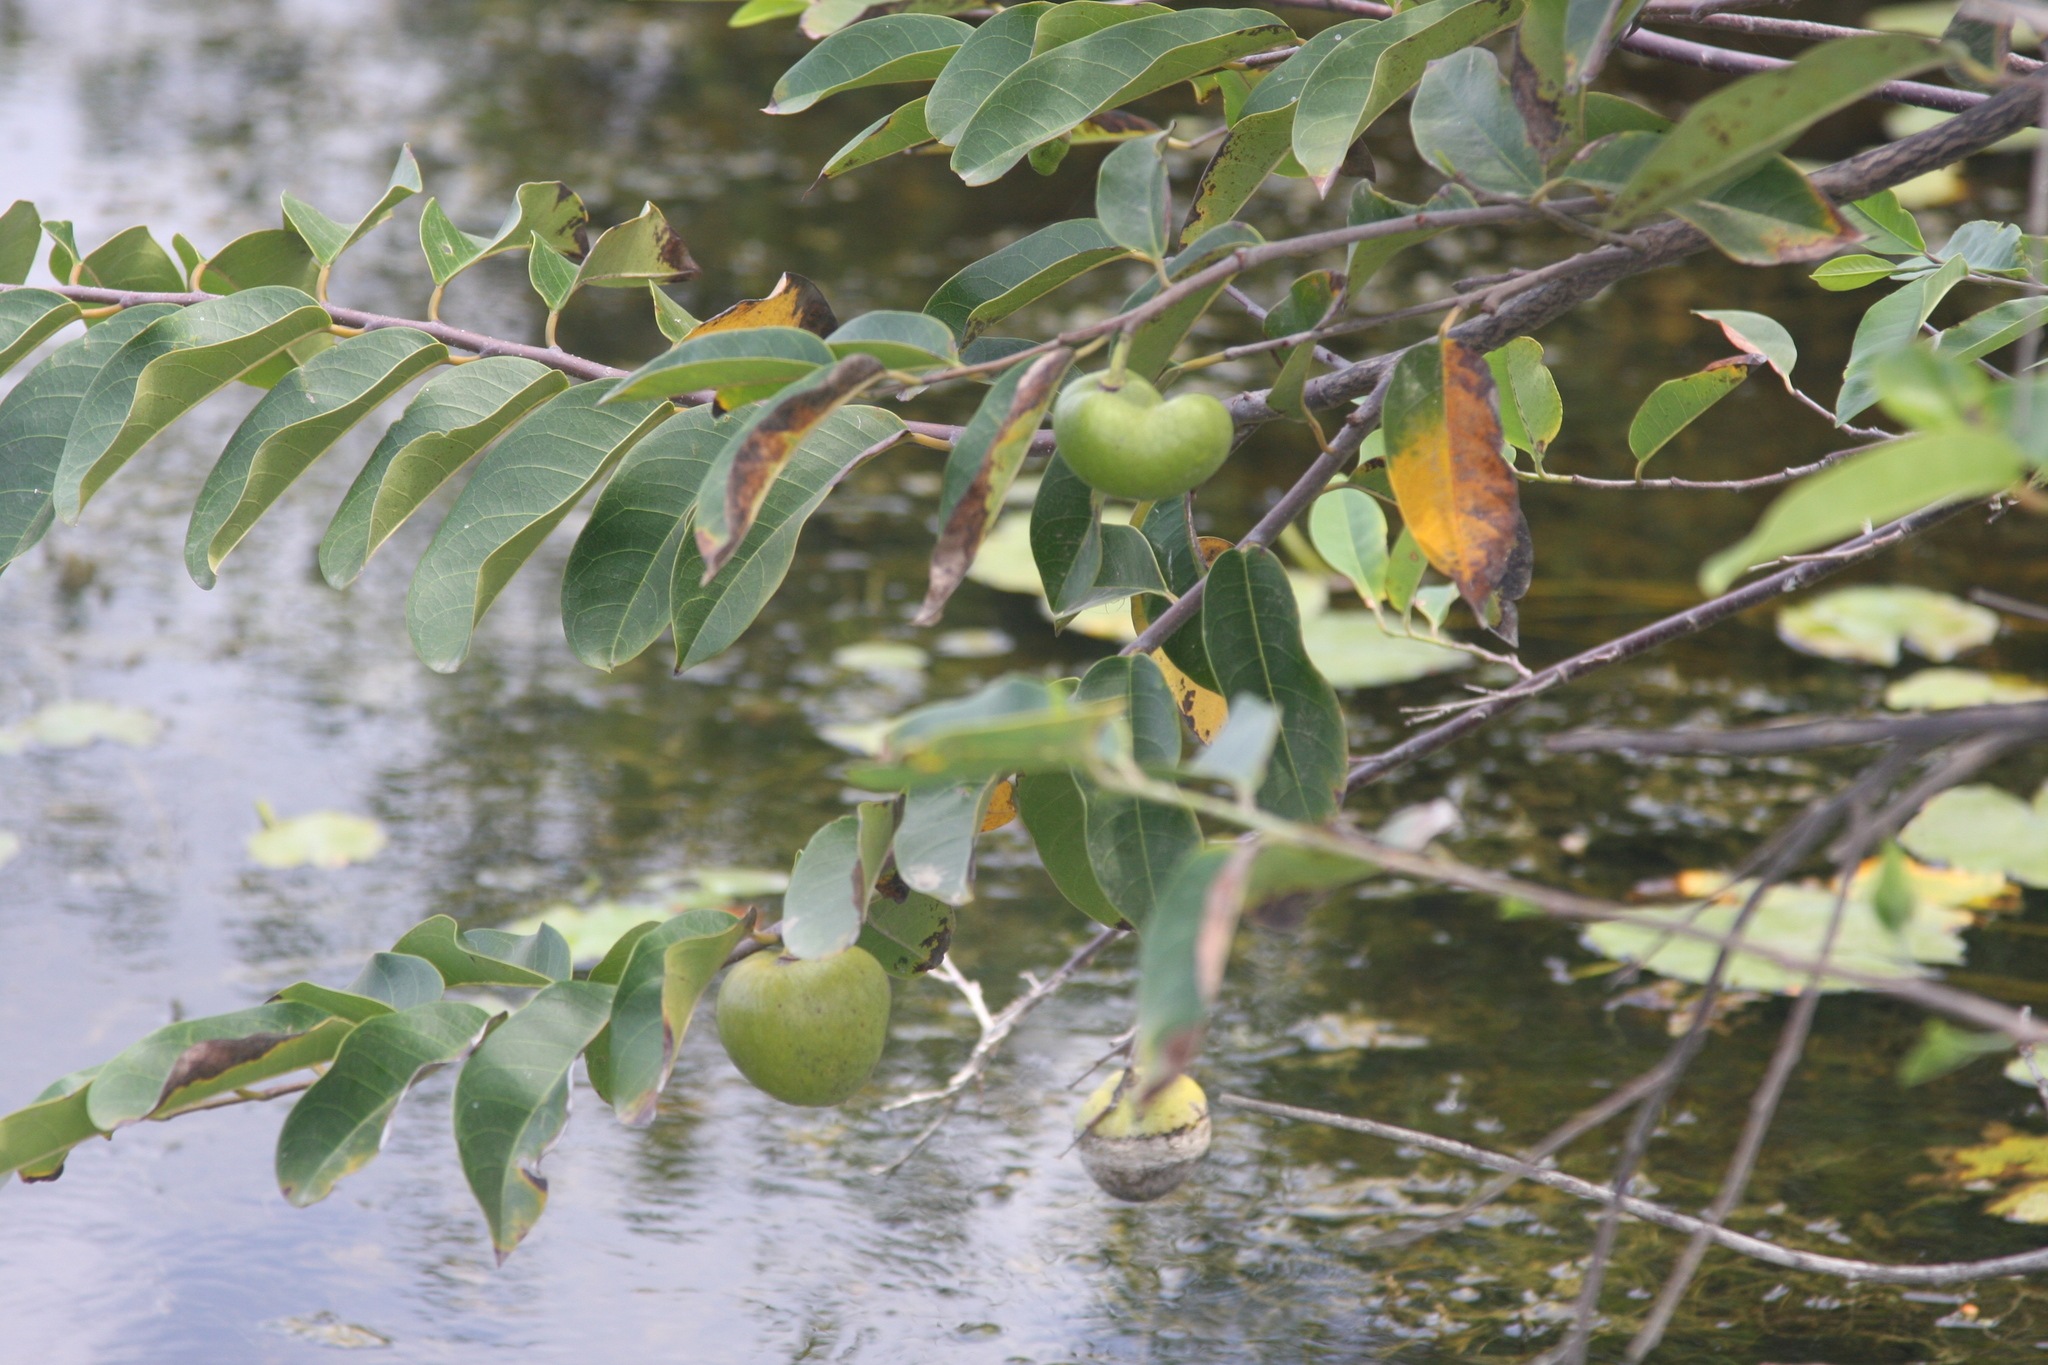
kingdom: Plantae
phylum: Tracheophyta
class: Magnoliopsida
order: Magnoliales
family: Annonaceae
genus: Annona
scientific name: Annona glabra
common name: Monkey apple
